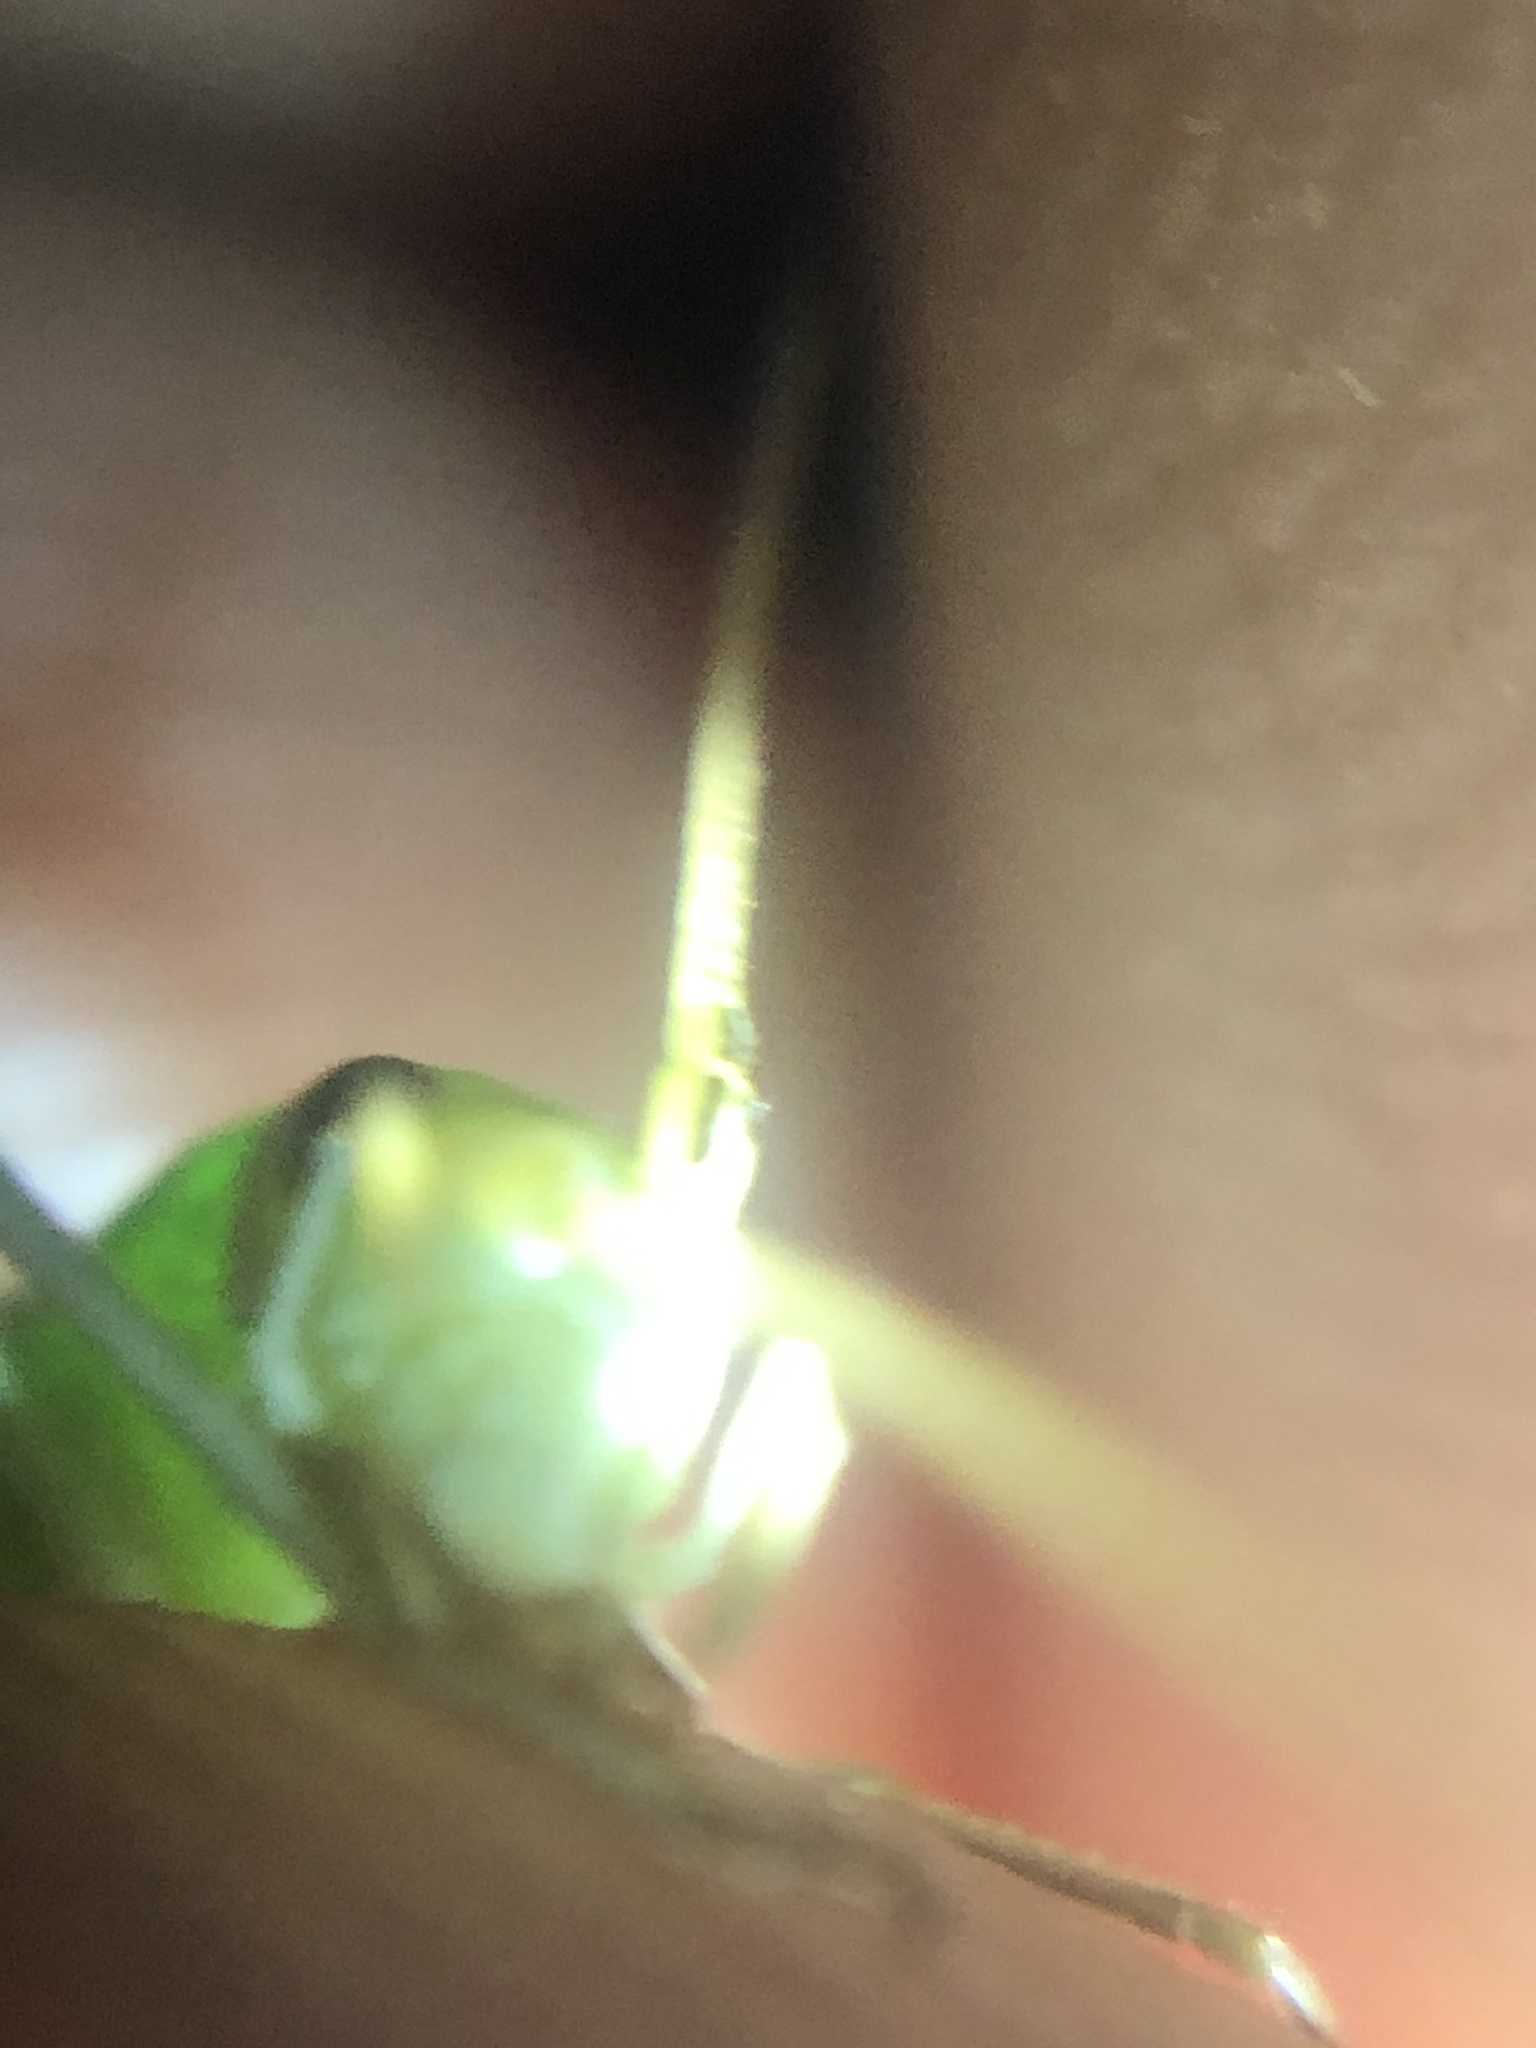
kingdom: Animalia
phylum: Arthropoda
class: Insecta
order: Orthoptera
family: Gryllidae
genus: Oecanthus
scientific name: Oecanthus
